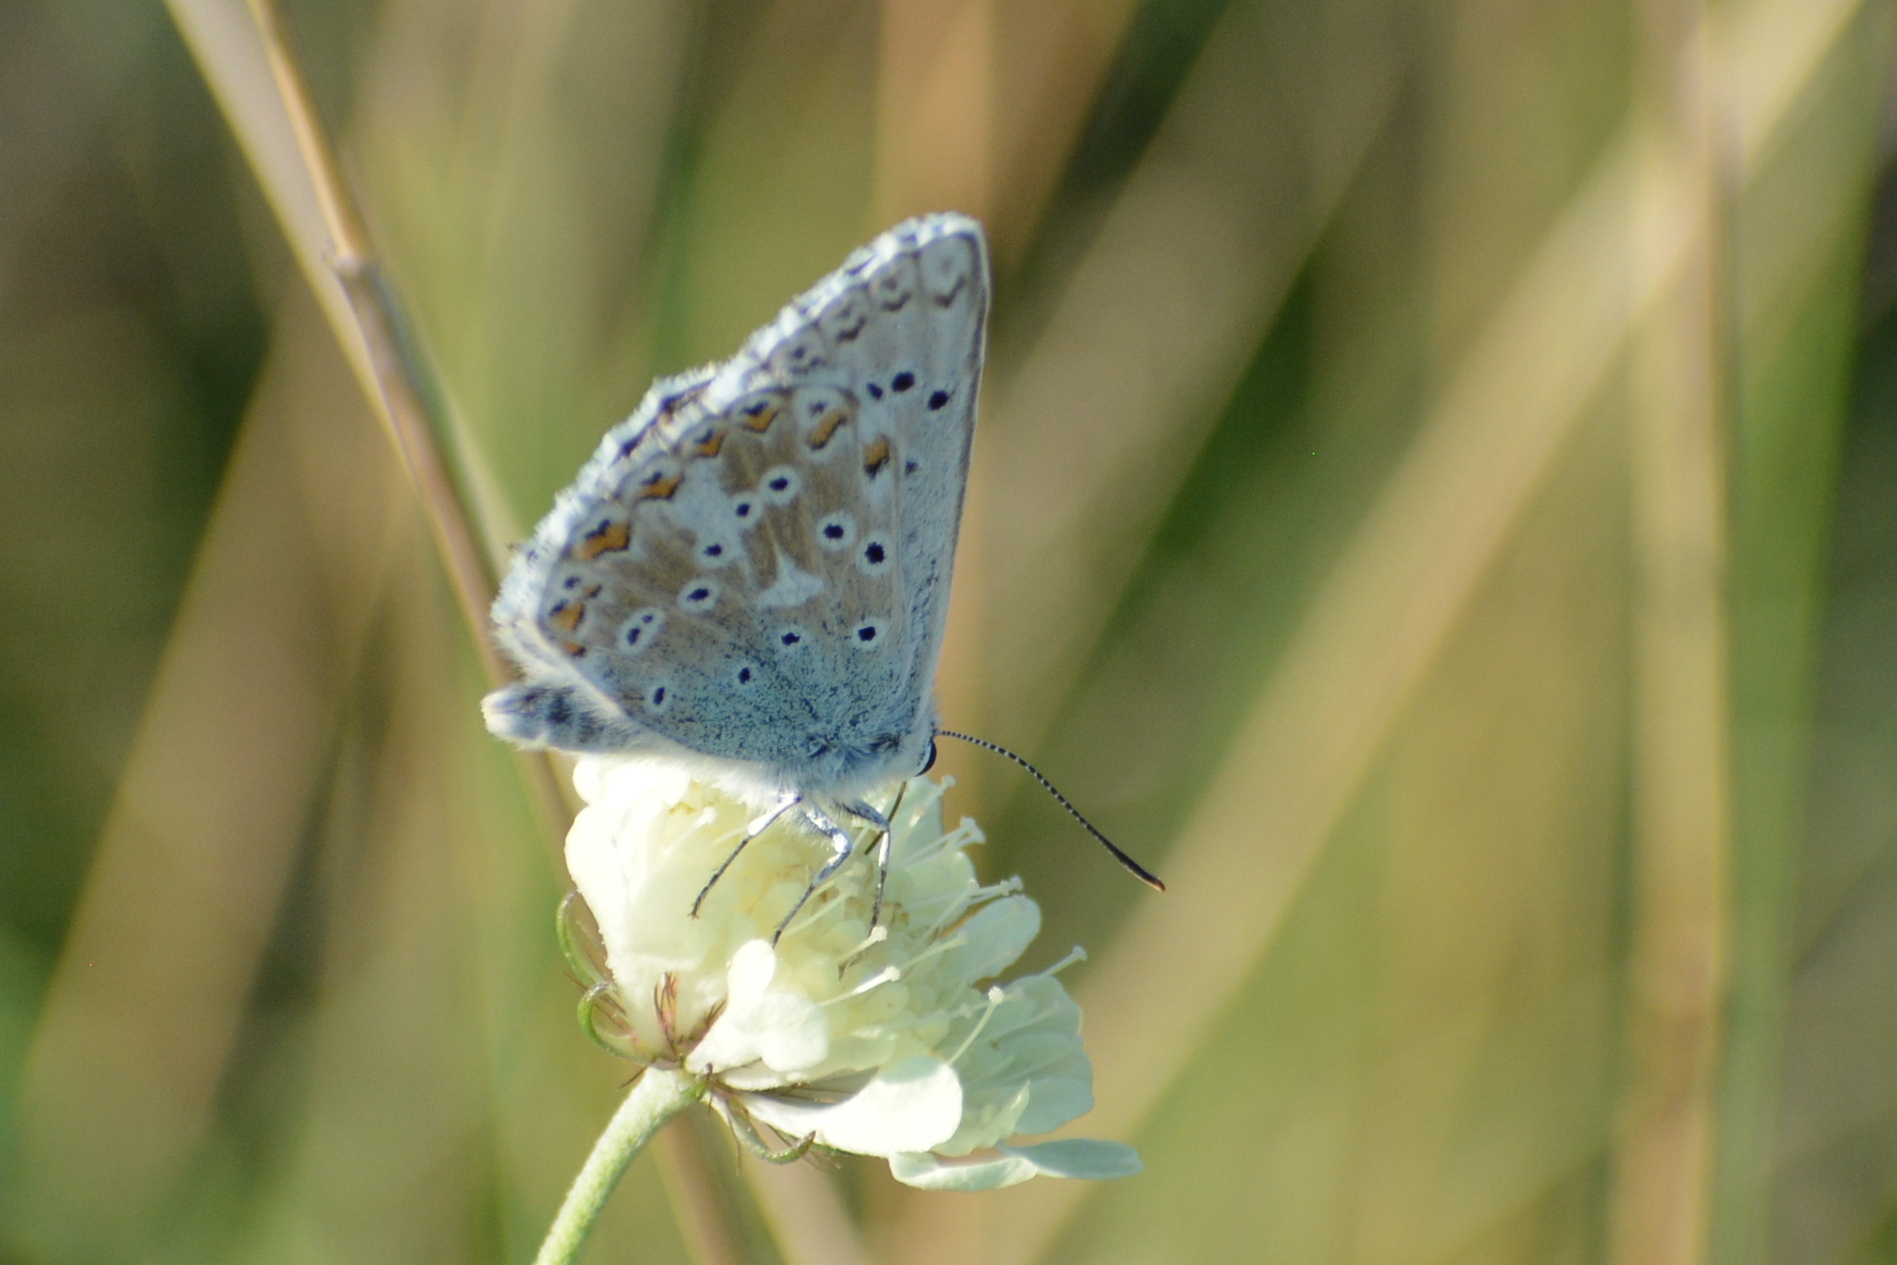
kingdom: Animalia
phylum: Arthropoda
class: Insecta
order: Lepidoptera
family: Lycaenidae
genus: Lysandra
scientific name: Lysandra coridon
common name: Chalkhill blue
